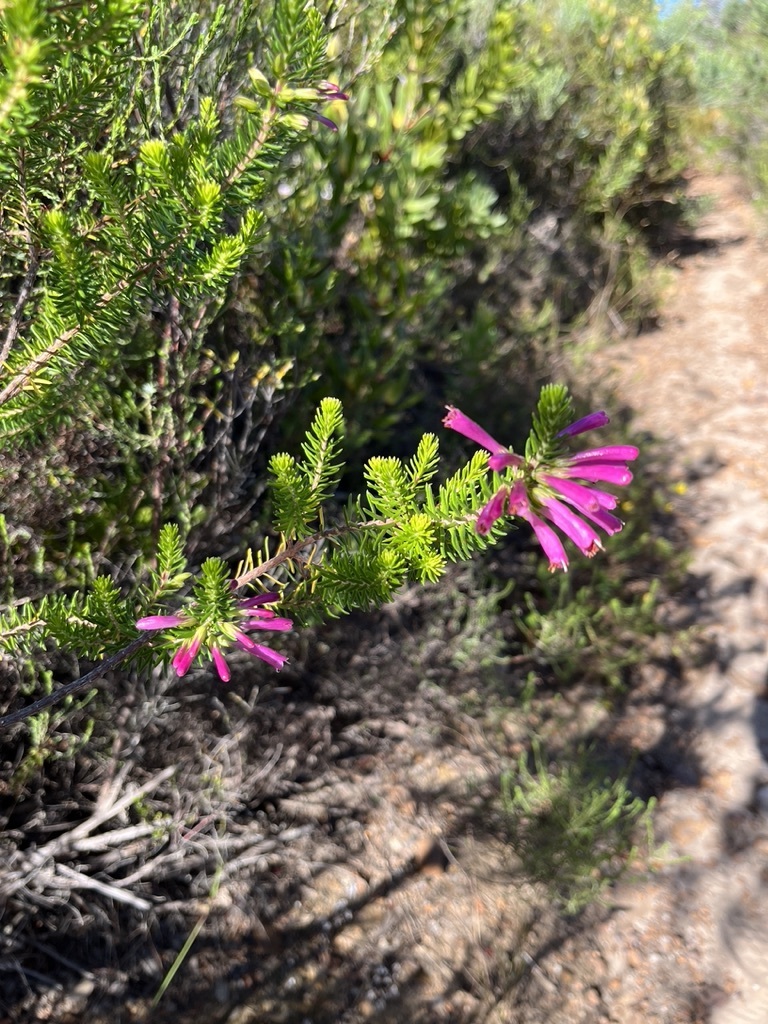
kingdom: Plantae
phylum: Tracheophyta
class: Magnoliopsida
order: Ericales
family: Ericaceae
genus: Erica
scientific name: Erica abietina
